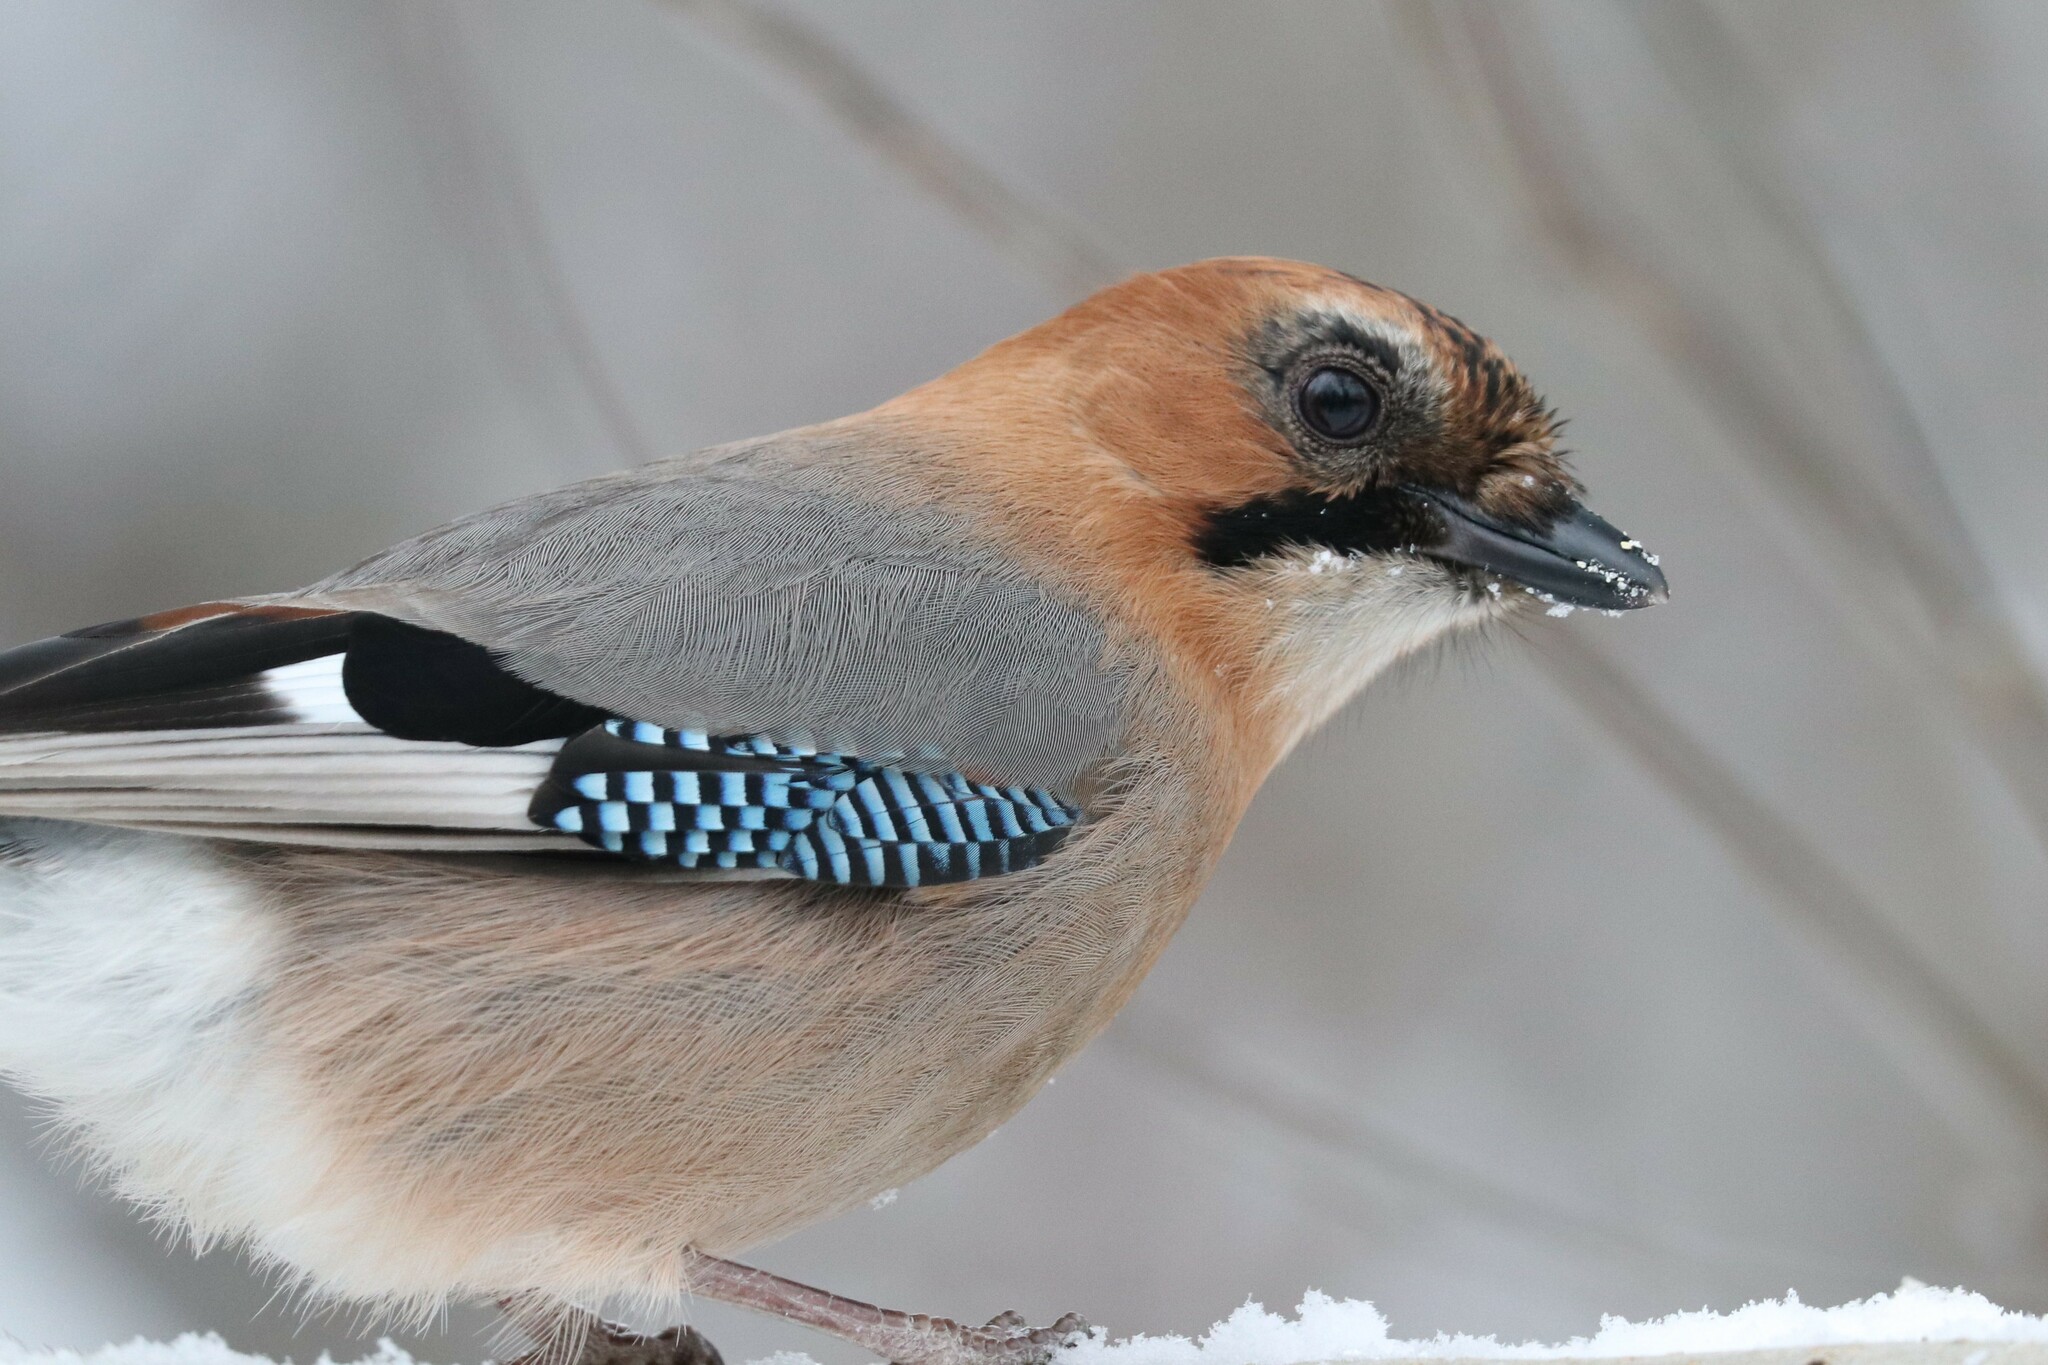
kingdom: Animalia
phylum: Chordata
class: Aves
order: Passeriformes
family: Corvidae
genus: Garrulus
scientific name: Garrulus glandarius
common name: Eurasian jay
